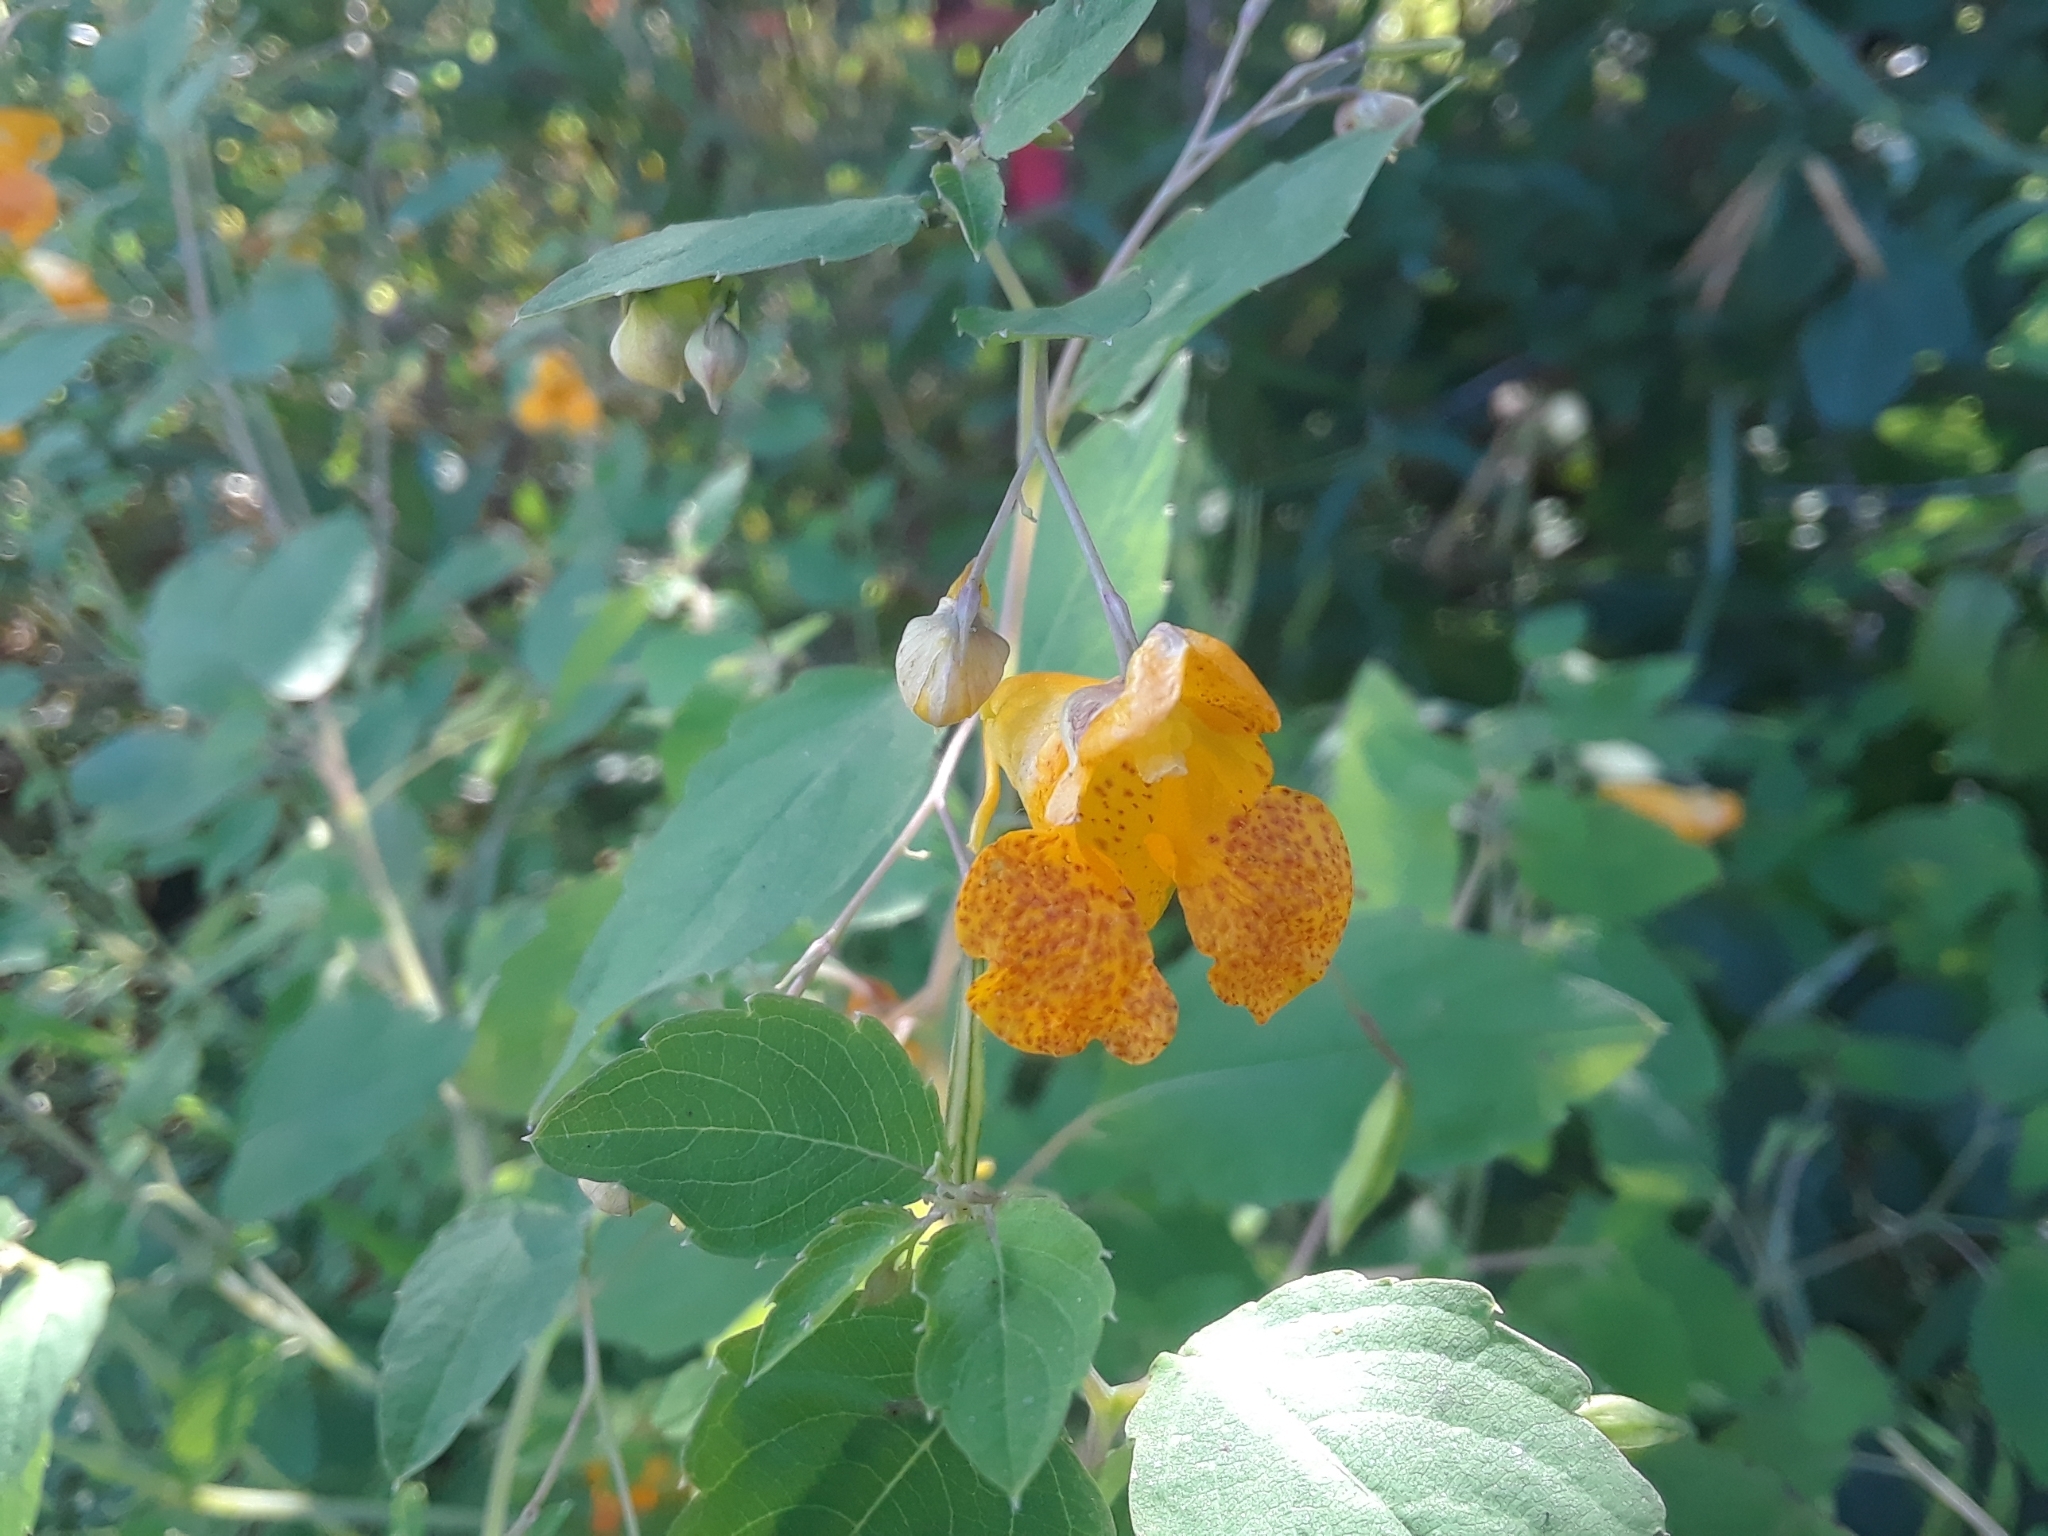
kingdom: Plantae
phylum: Tracheophyta
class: Magnoliopsida
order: Ericales
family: Balsaminaceae
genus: Impatiens
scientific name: Impatiens capensis
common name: Orange balsam
